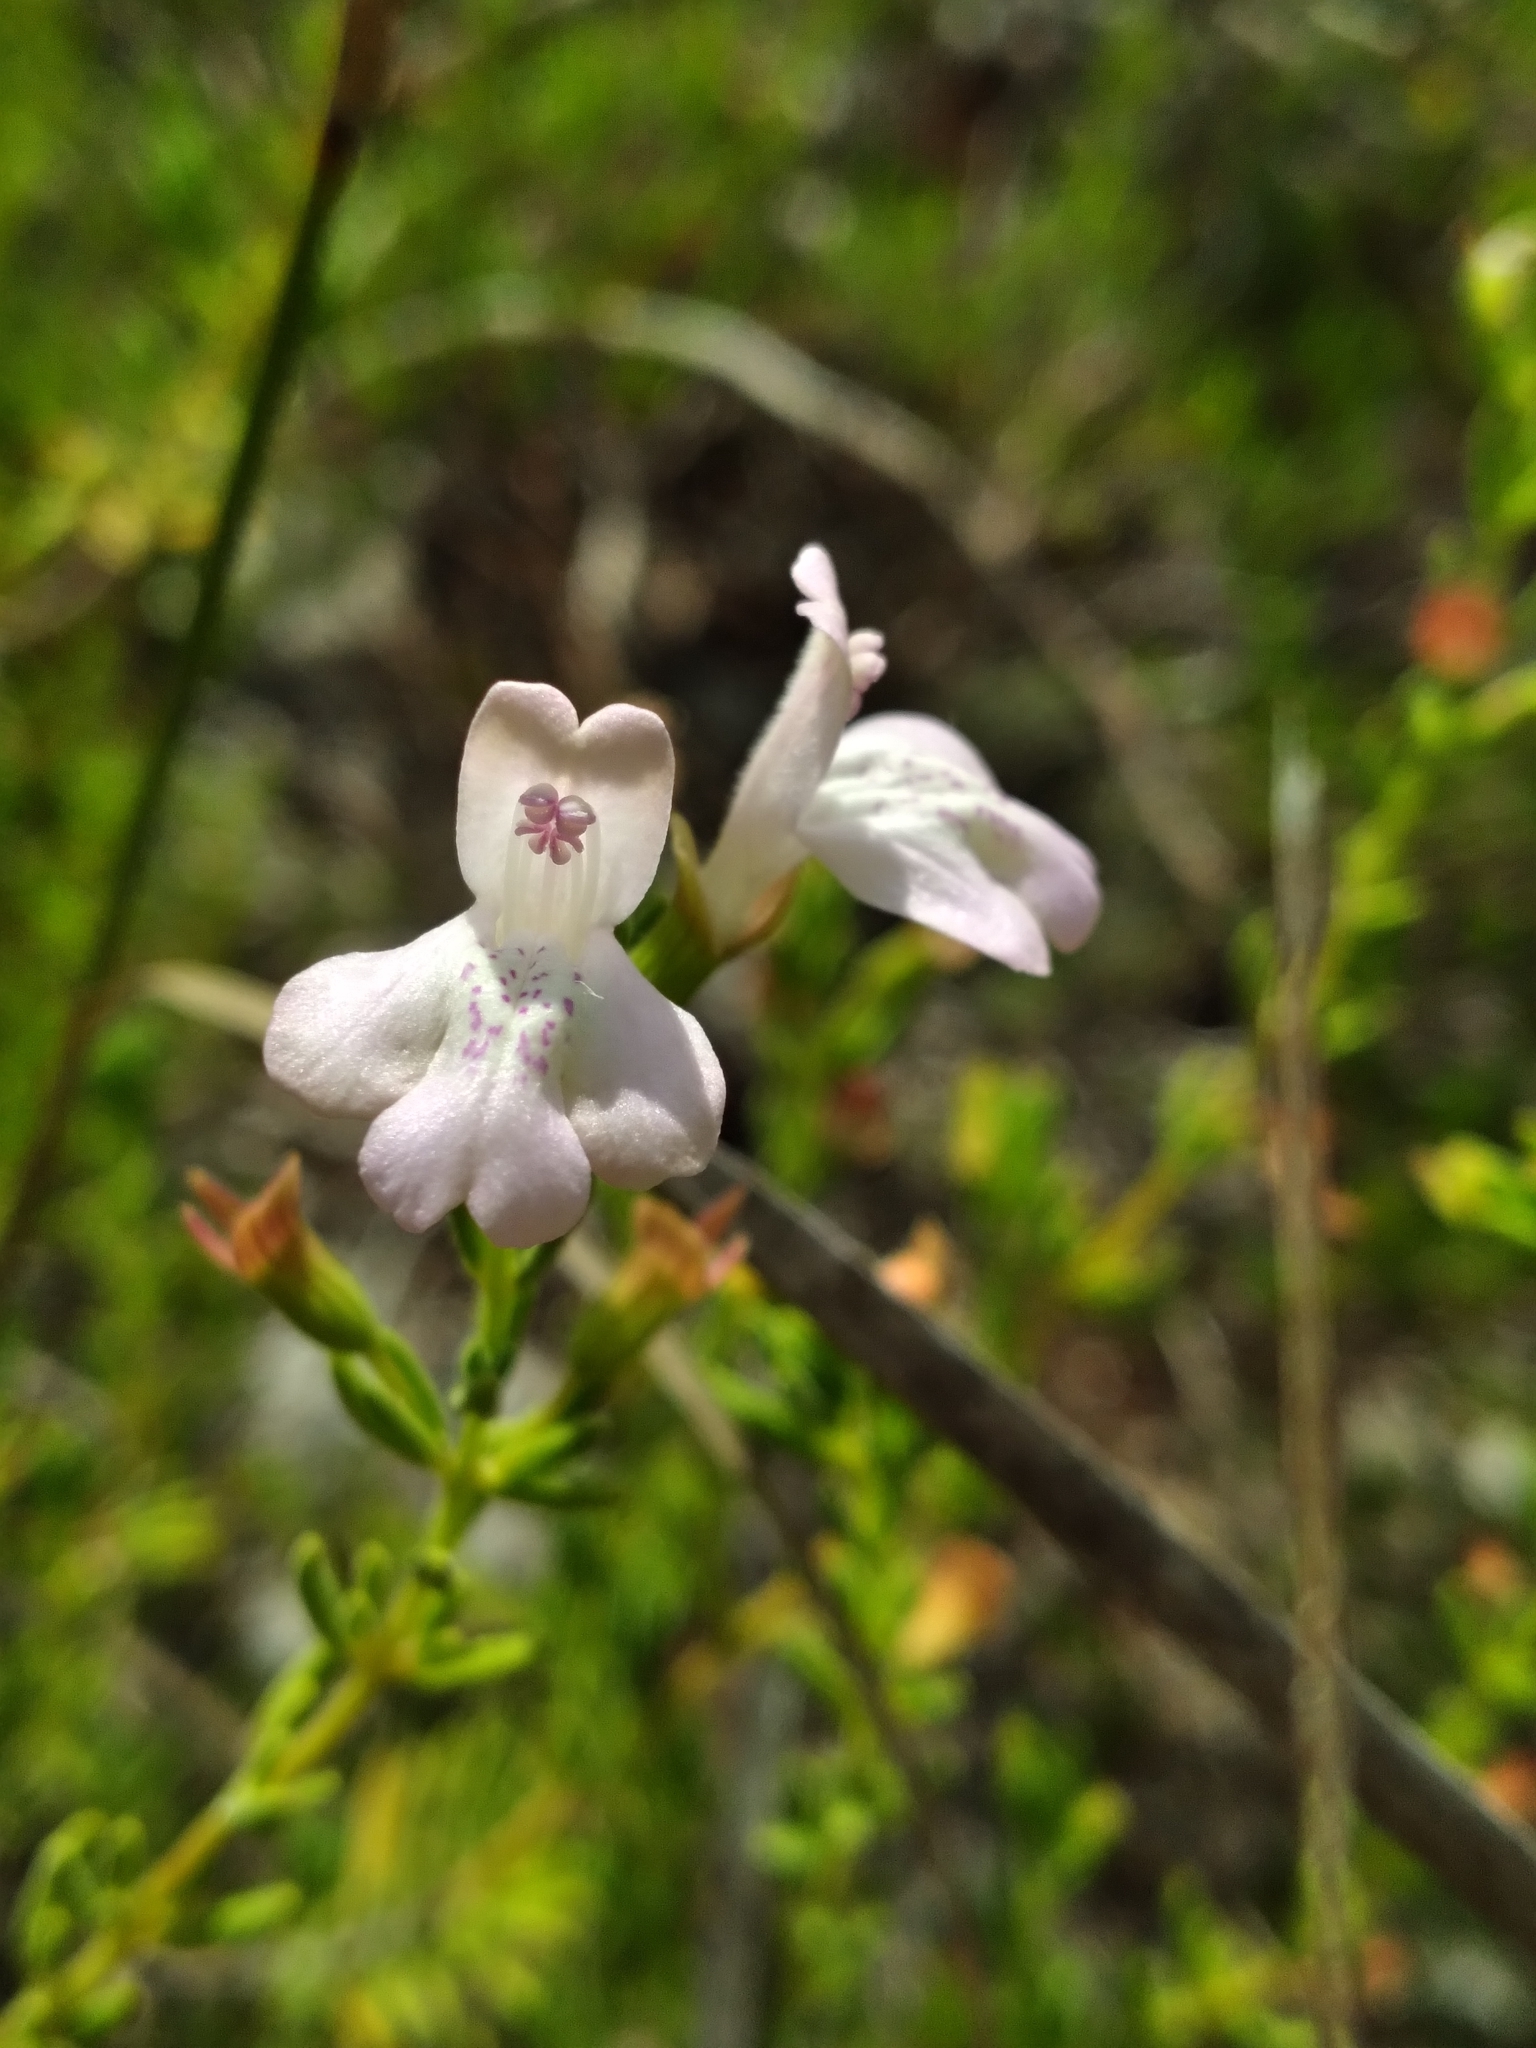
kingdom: Plantae
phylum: Tracheophyta
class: Magnoliopsida
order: Lamiales
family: Lamiaceae
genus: Clinopodium
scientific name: Clinopodium ashei
